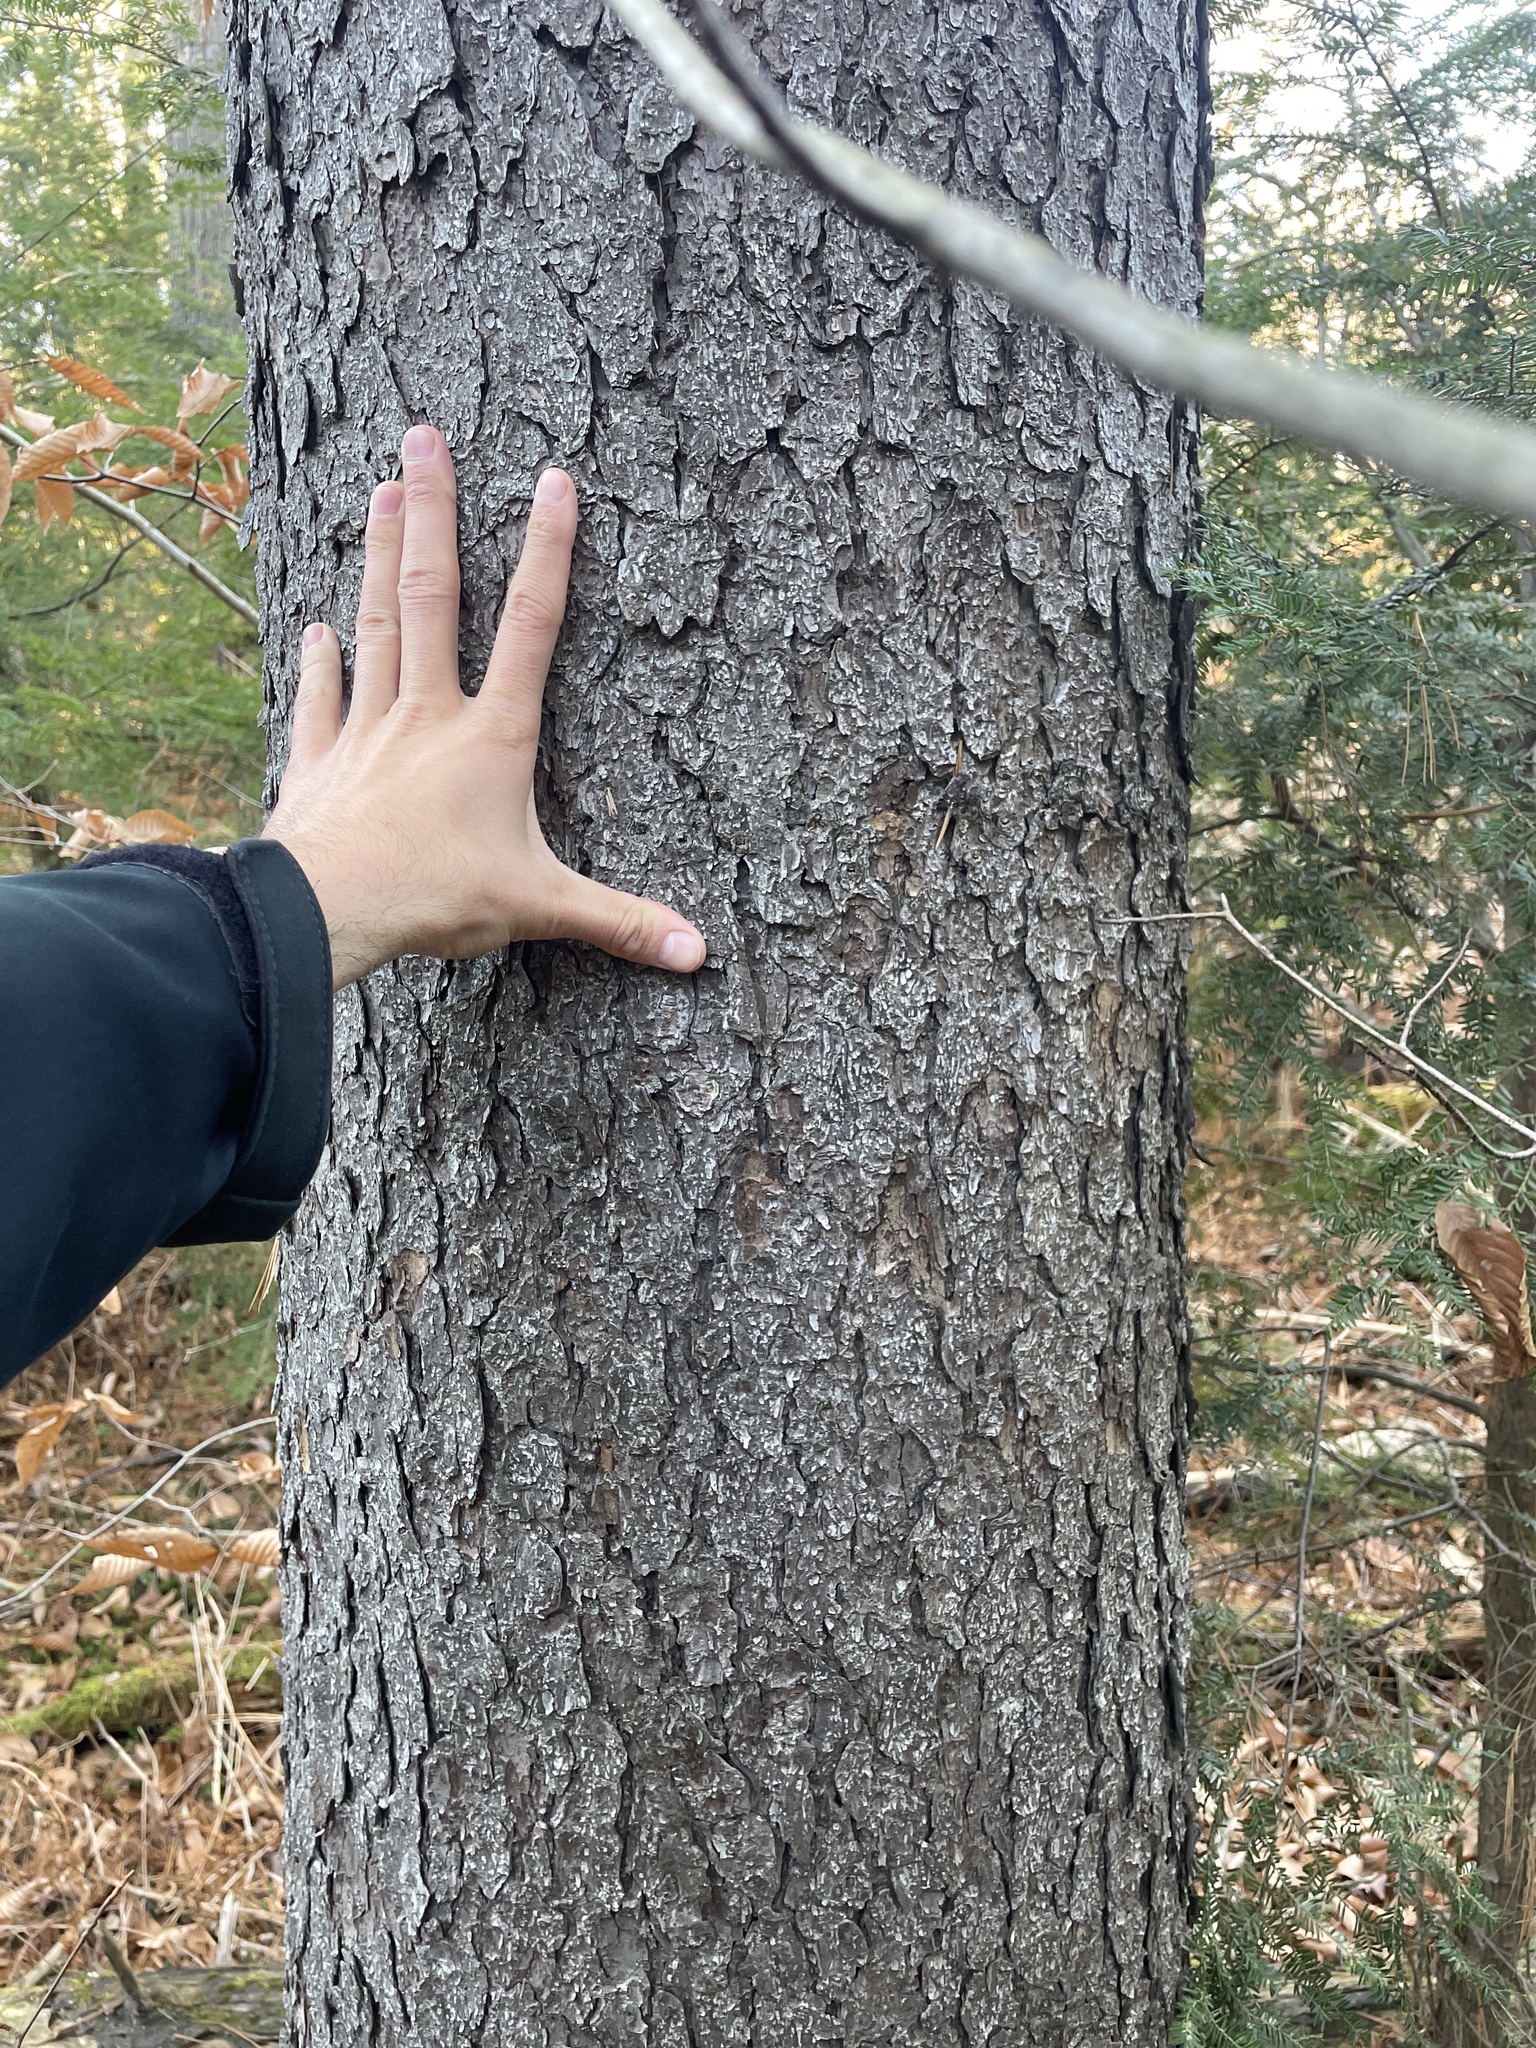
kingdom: Plantae
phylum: Tracheophyta
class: Pinopsida
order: Pinales
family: Pinaceae
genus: Picea
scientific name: Picea rubens
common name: Red spruce
